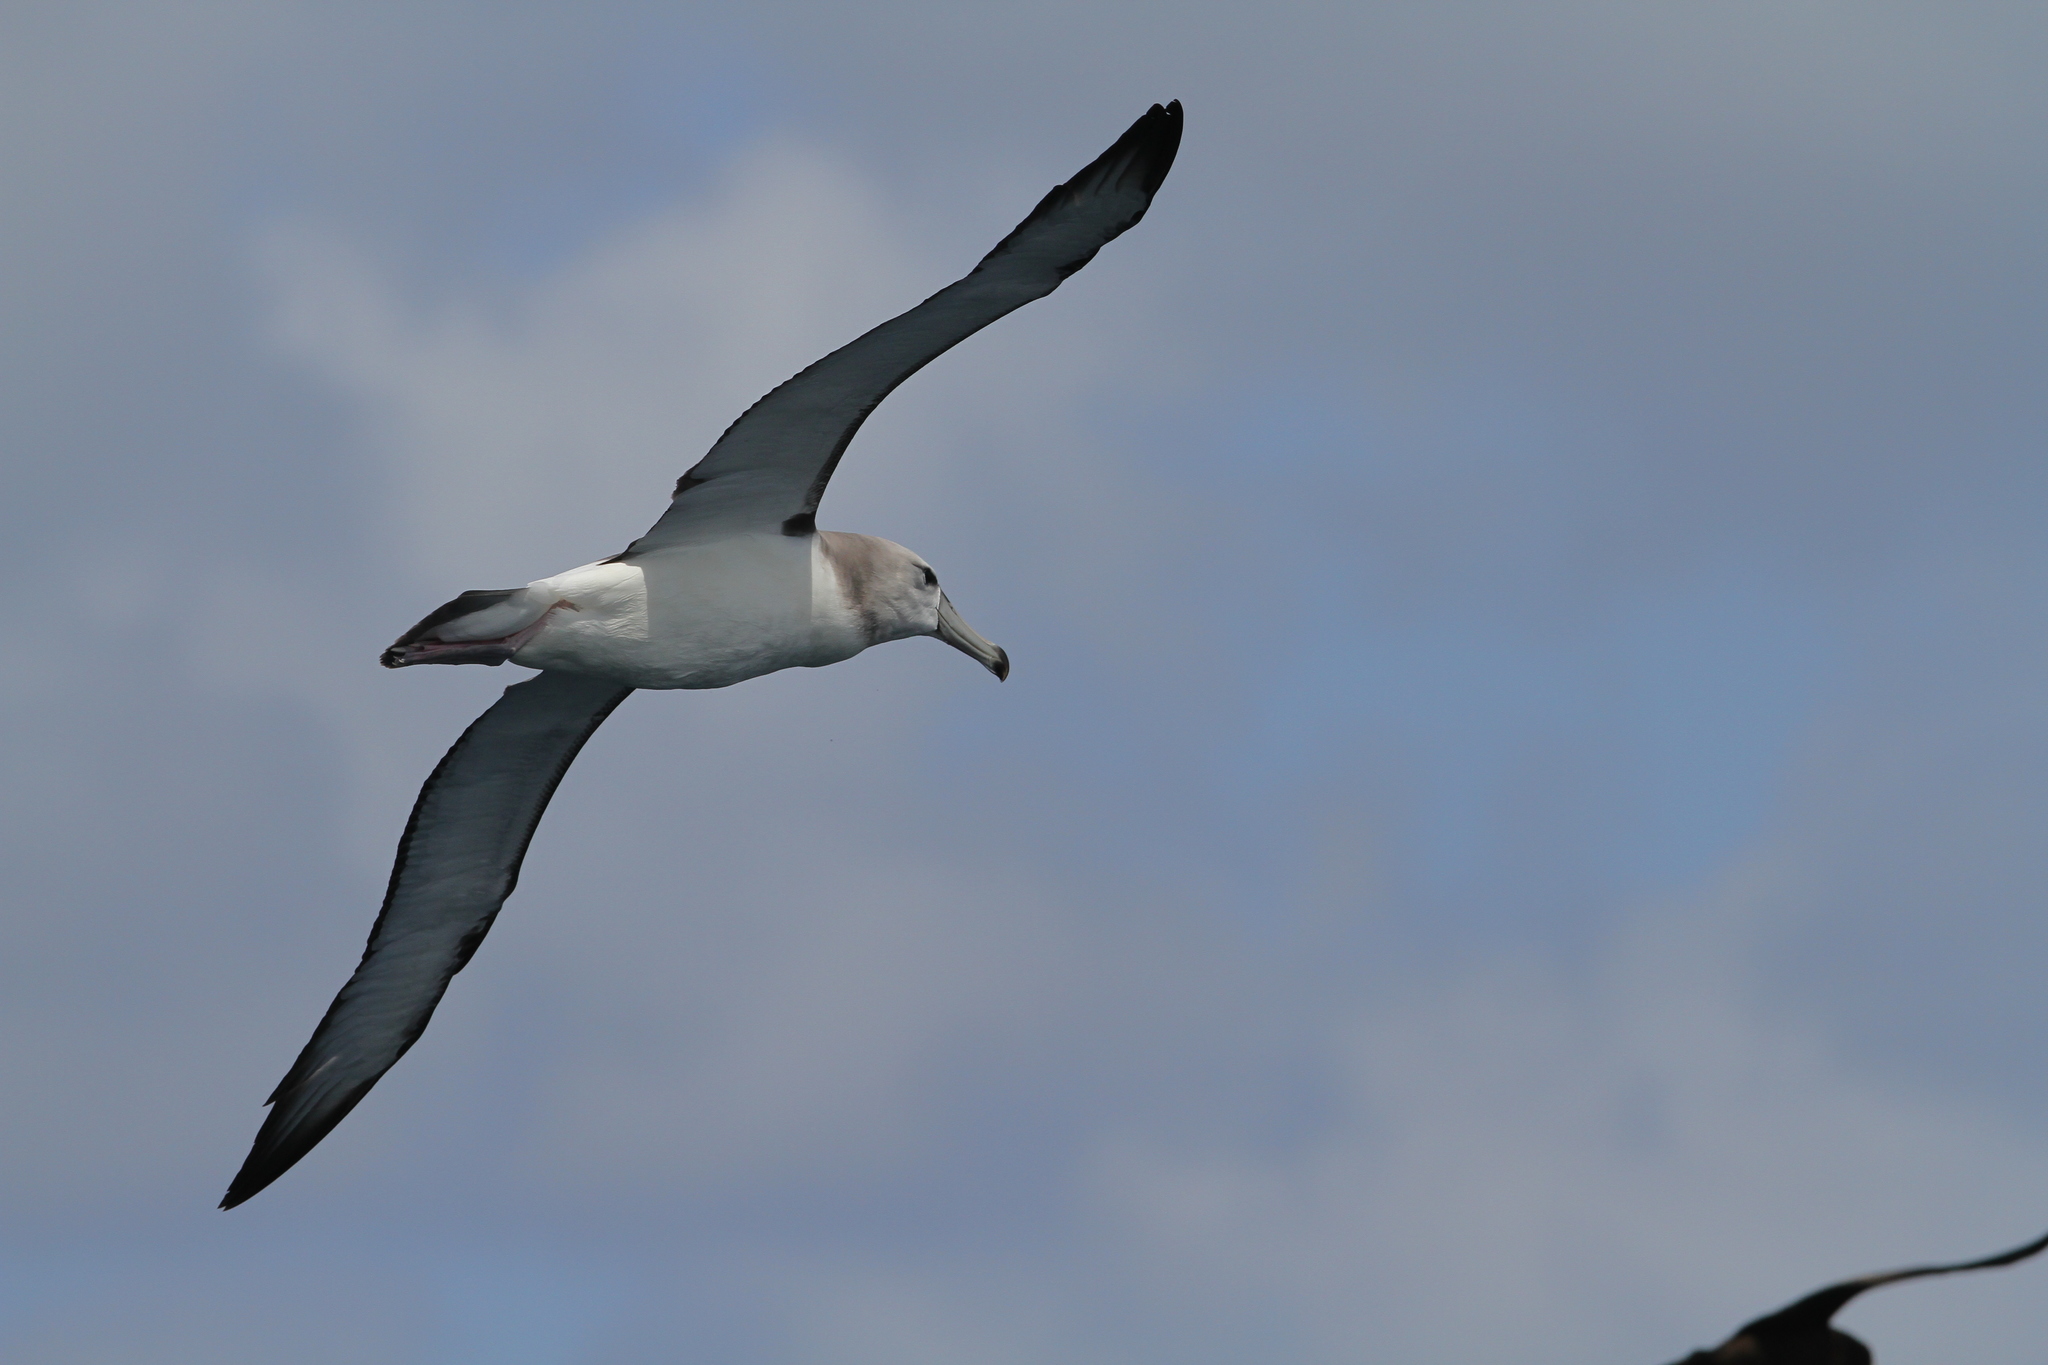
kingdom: Animalia
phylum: Chordata
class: Aves
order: Procellariiformes
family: Diomedeidae
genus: Thalassarche
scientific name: Thalassarche cauta
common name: Shy albatross
